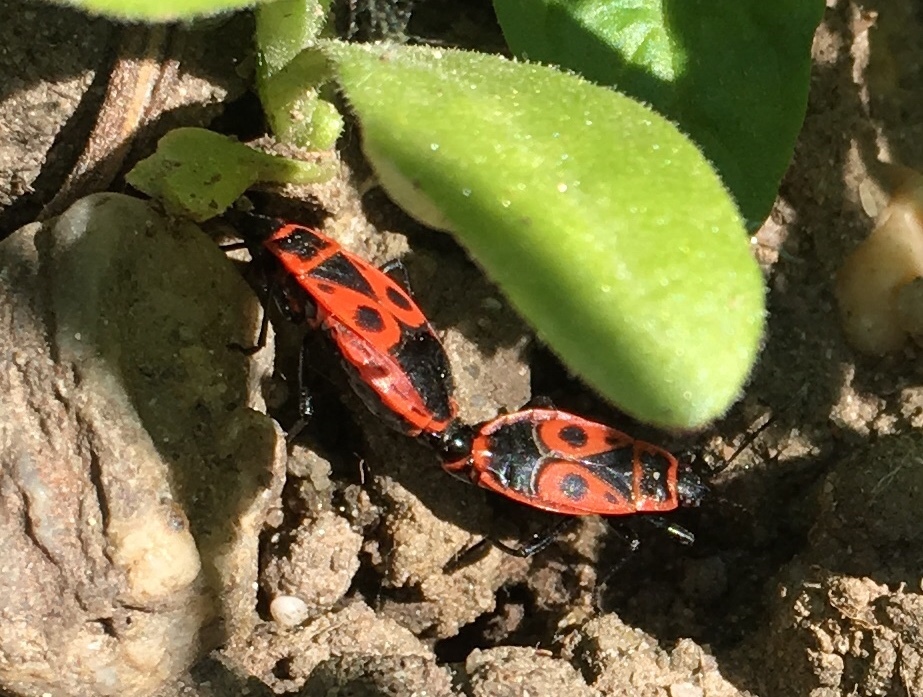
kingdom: Animalia
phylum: Arthropoda
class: Insecta
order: Hemiptera
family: Pyrrhocoridae
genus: Pyrrhocoris
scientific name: Pyrrhocoris apterus
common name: Firebug
